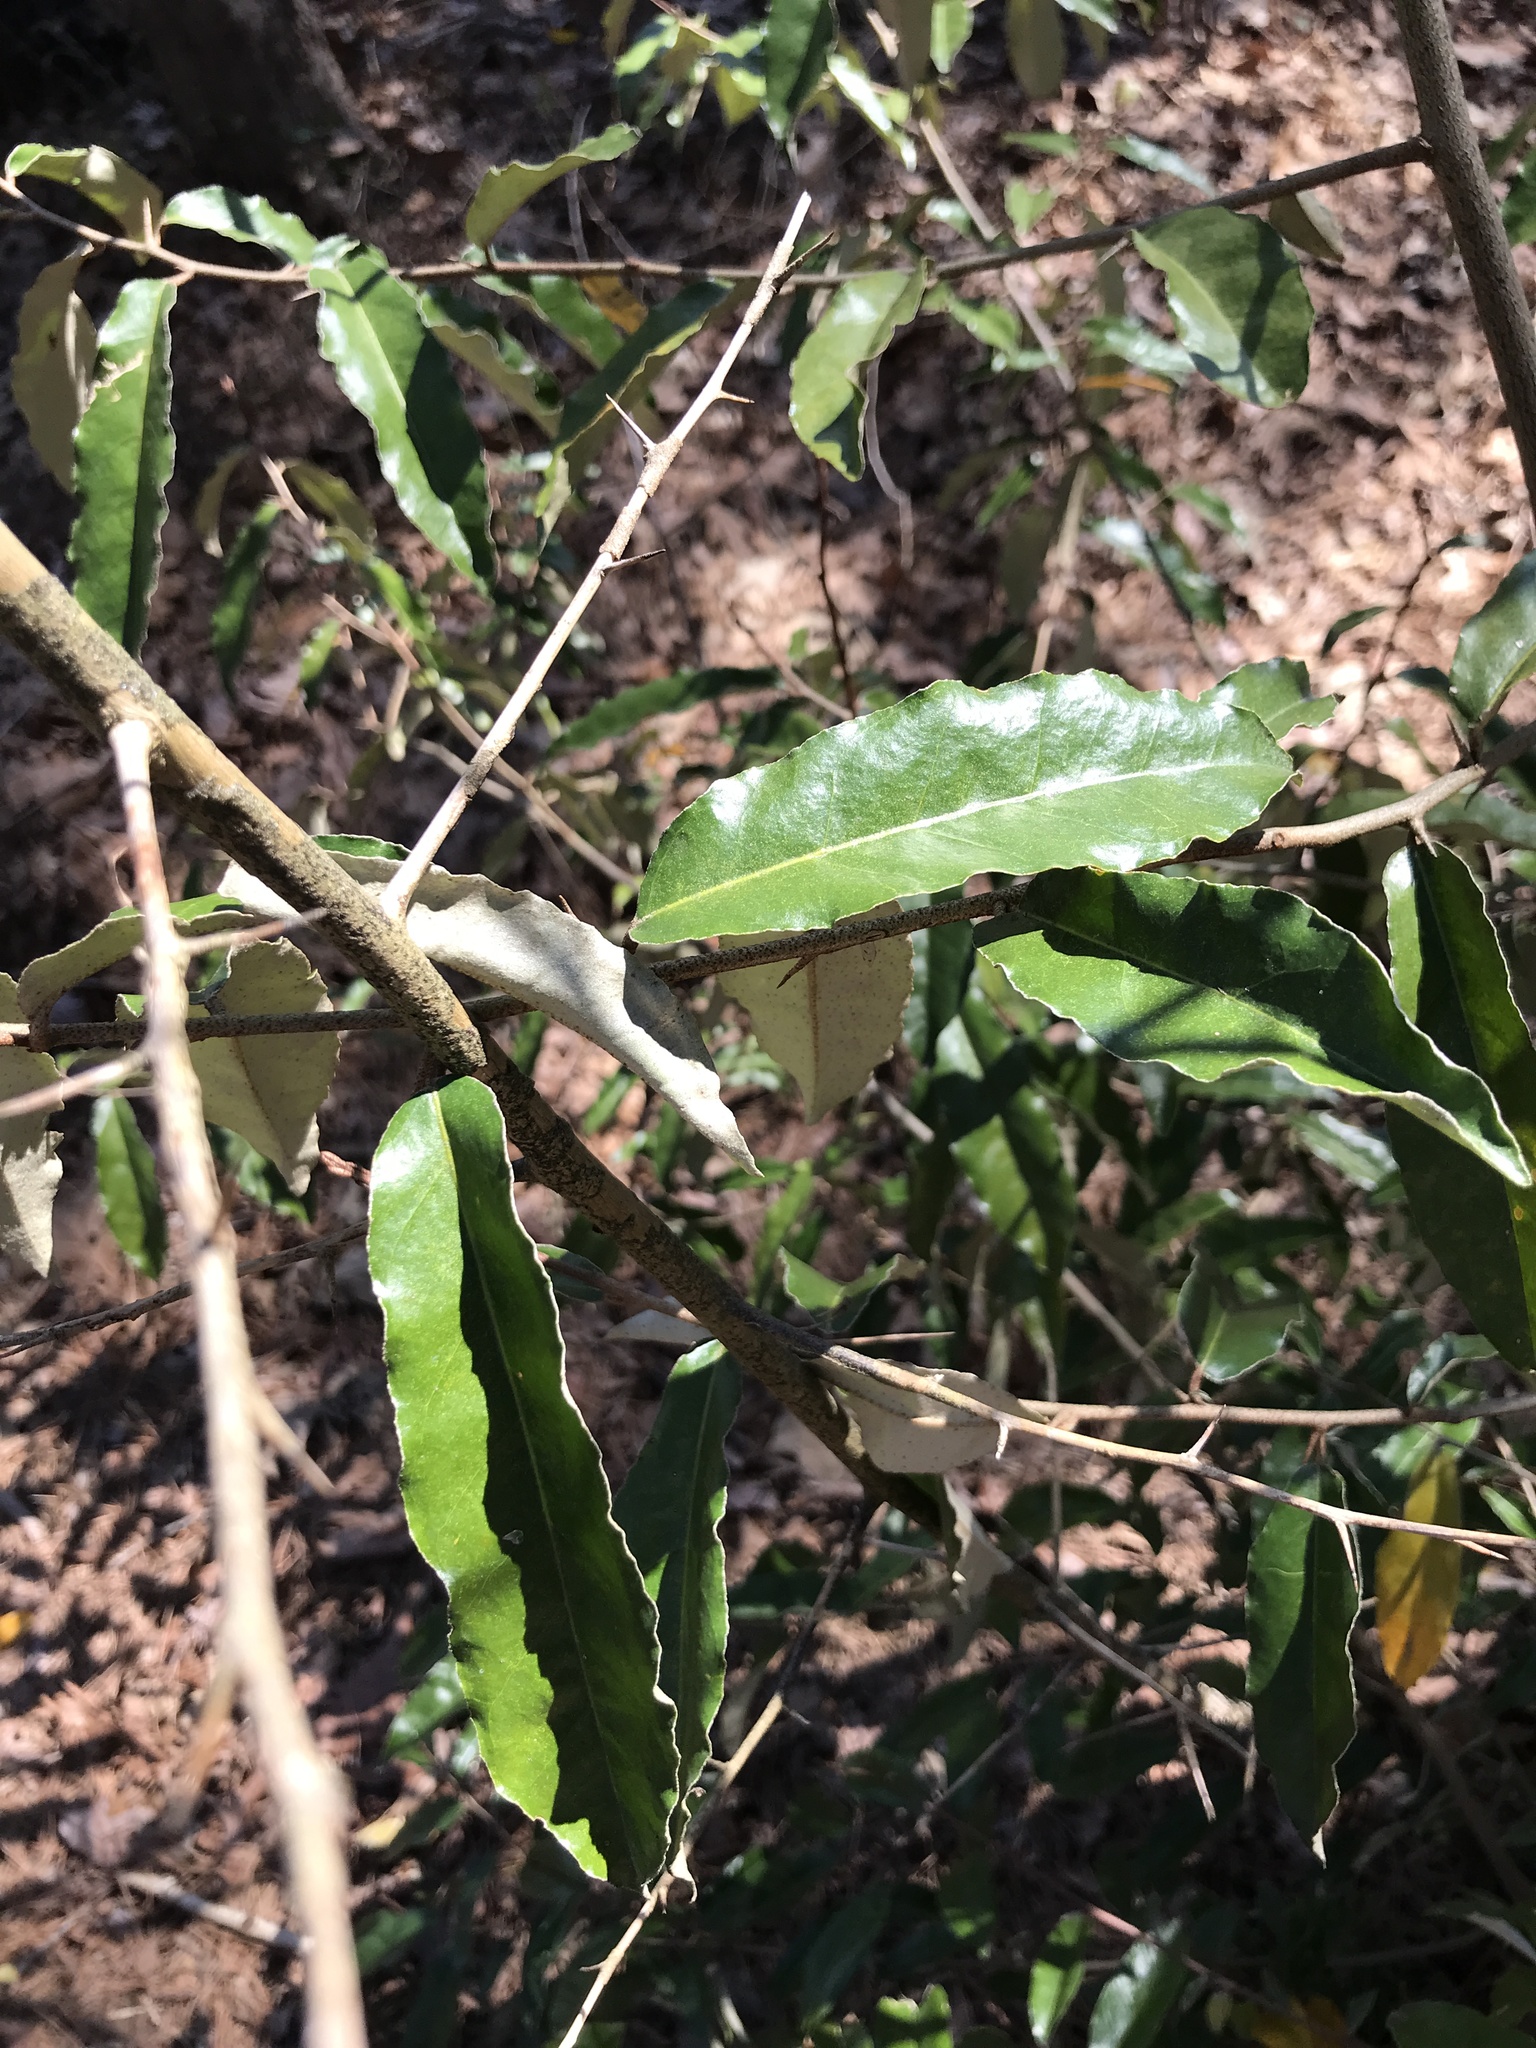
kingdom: Plantae
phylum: Tracheophyta
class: Magnoliopsida
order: Rosales
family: Elaeagnaceae
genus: Elaeagnus
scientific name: Elaeagnus pungens
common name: Spiny oleaster
